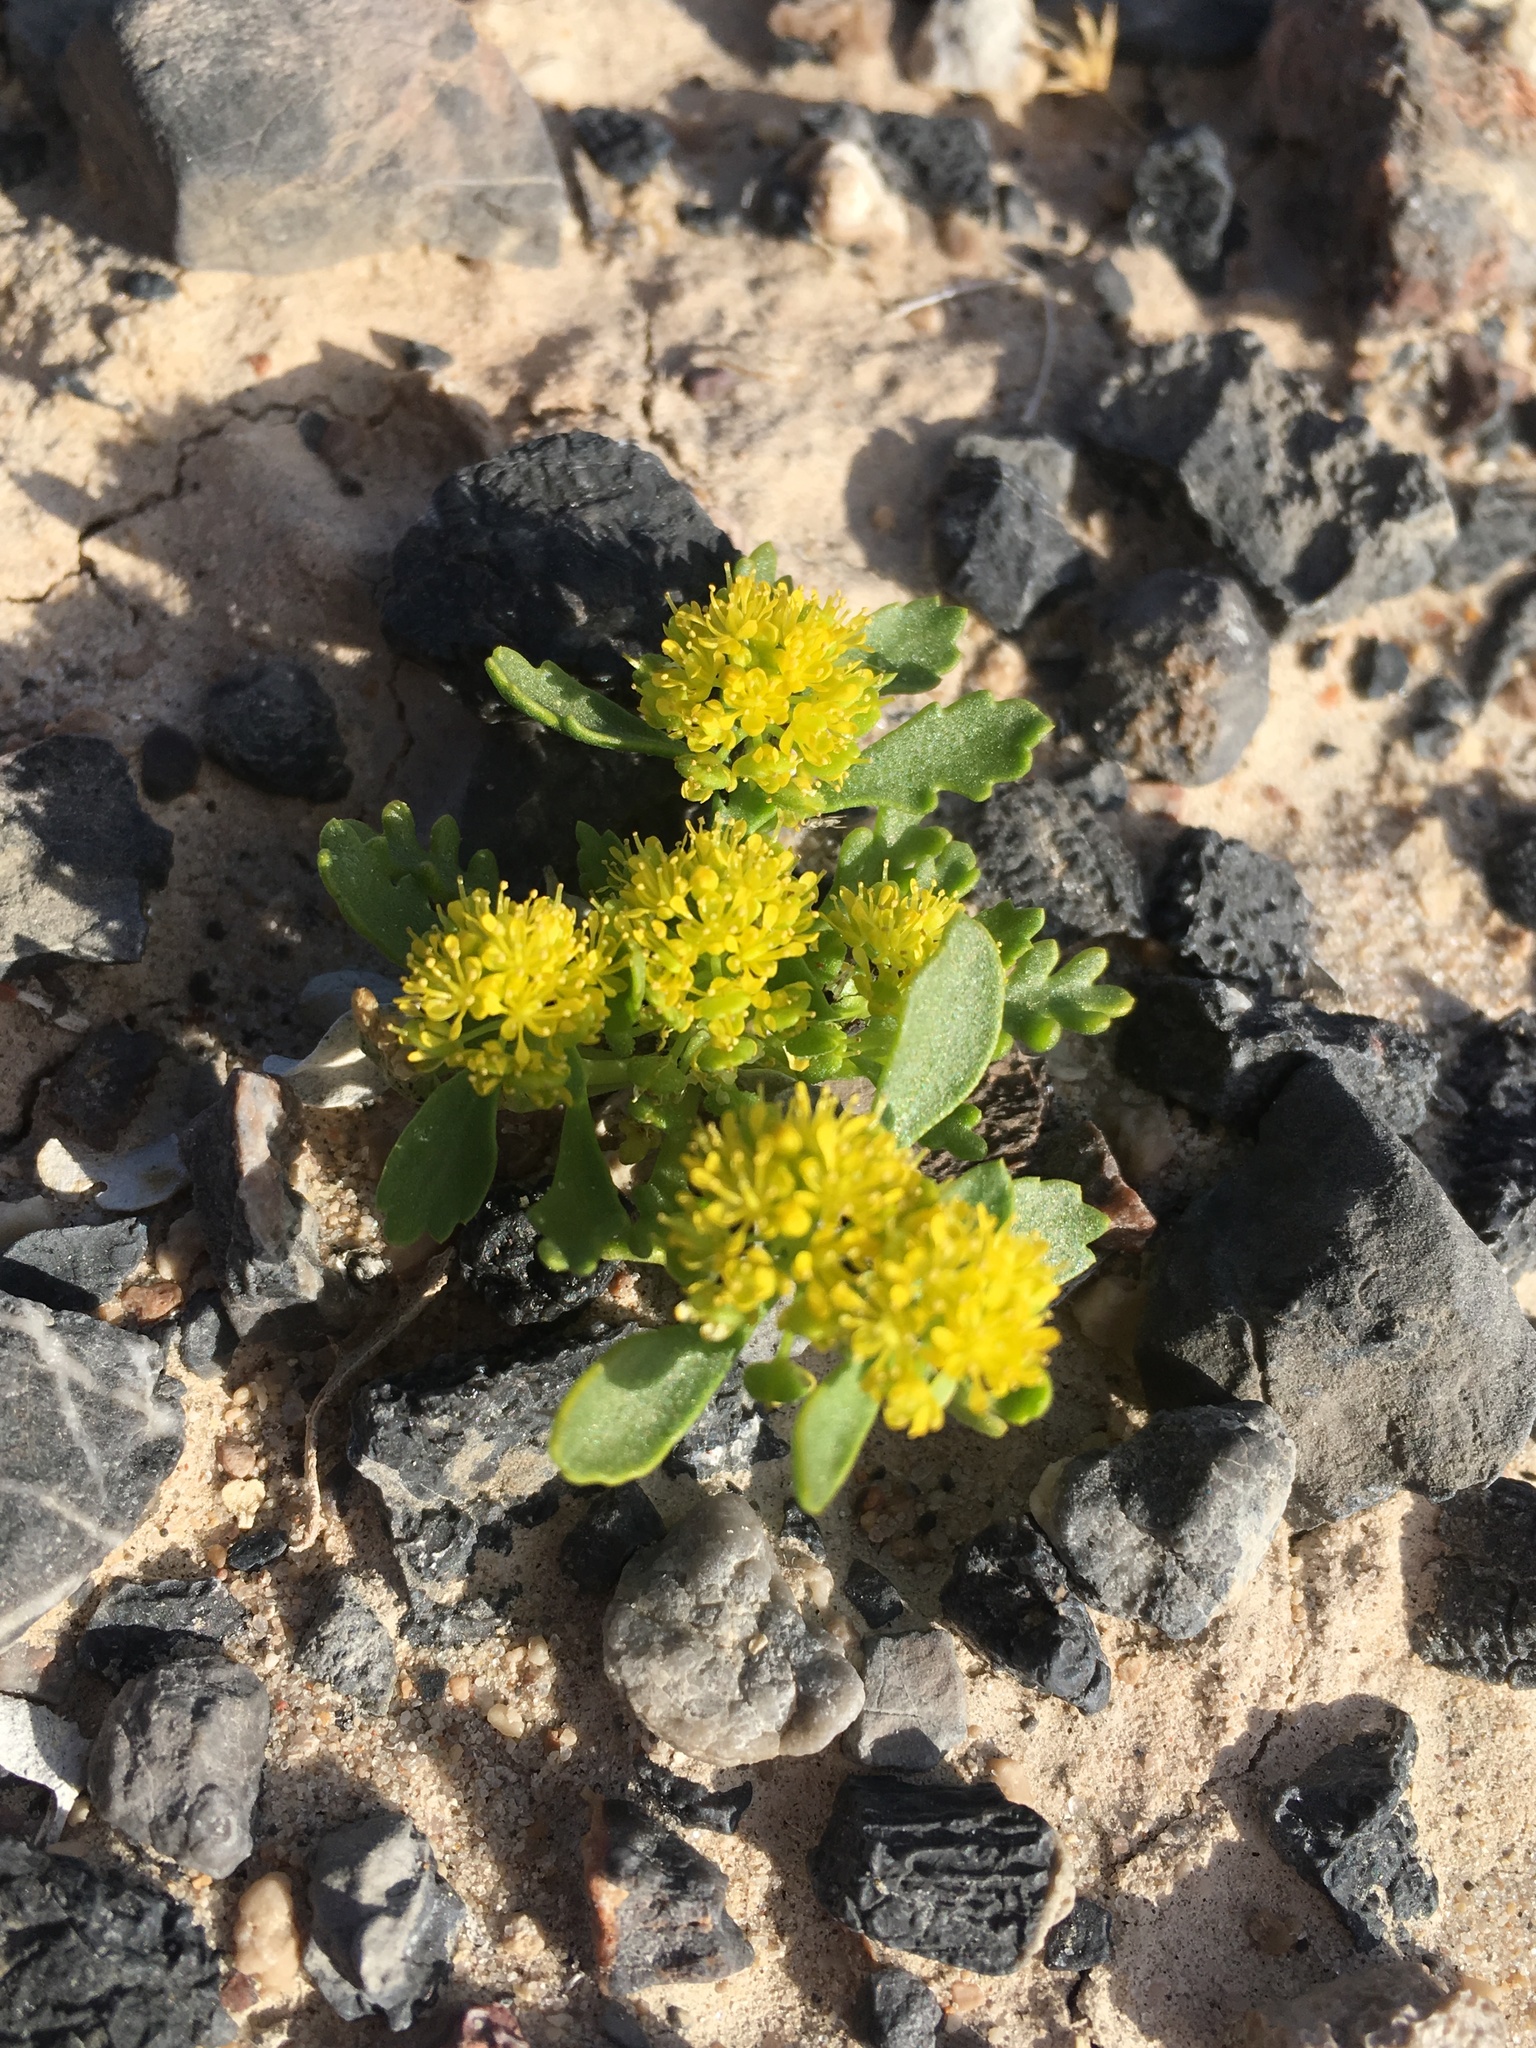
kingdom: Plantae
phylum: Tracheophyta
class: Magnoliopsida
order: Brassicales
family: Brassicaceae
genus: Lepidium
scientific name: Lepidium flavum
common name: Yellow pepperwort
